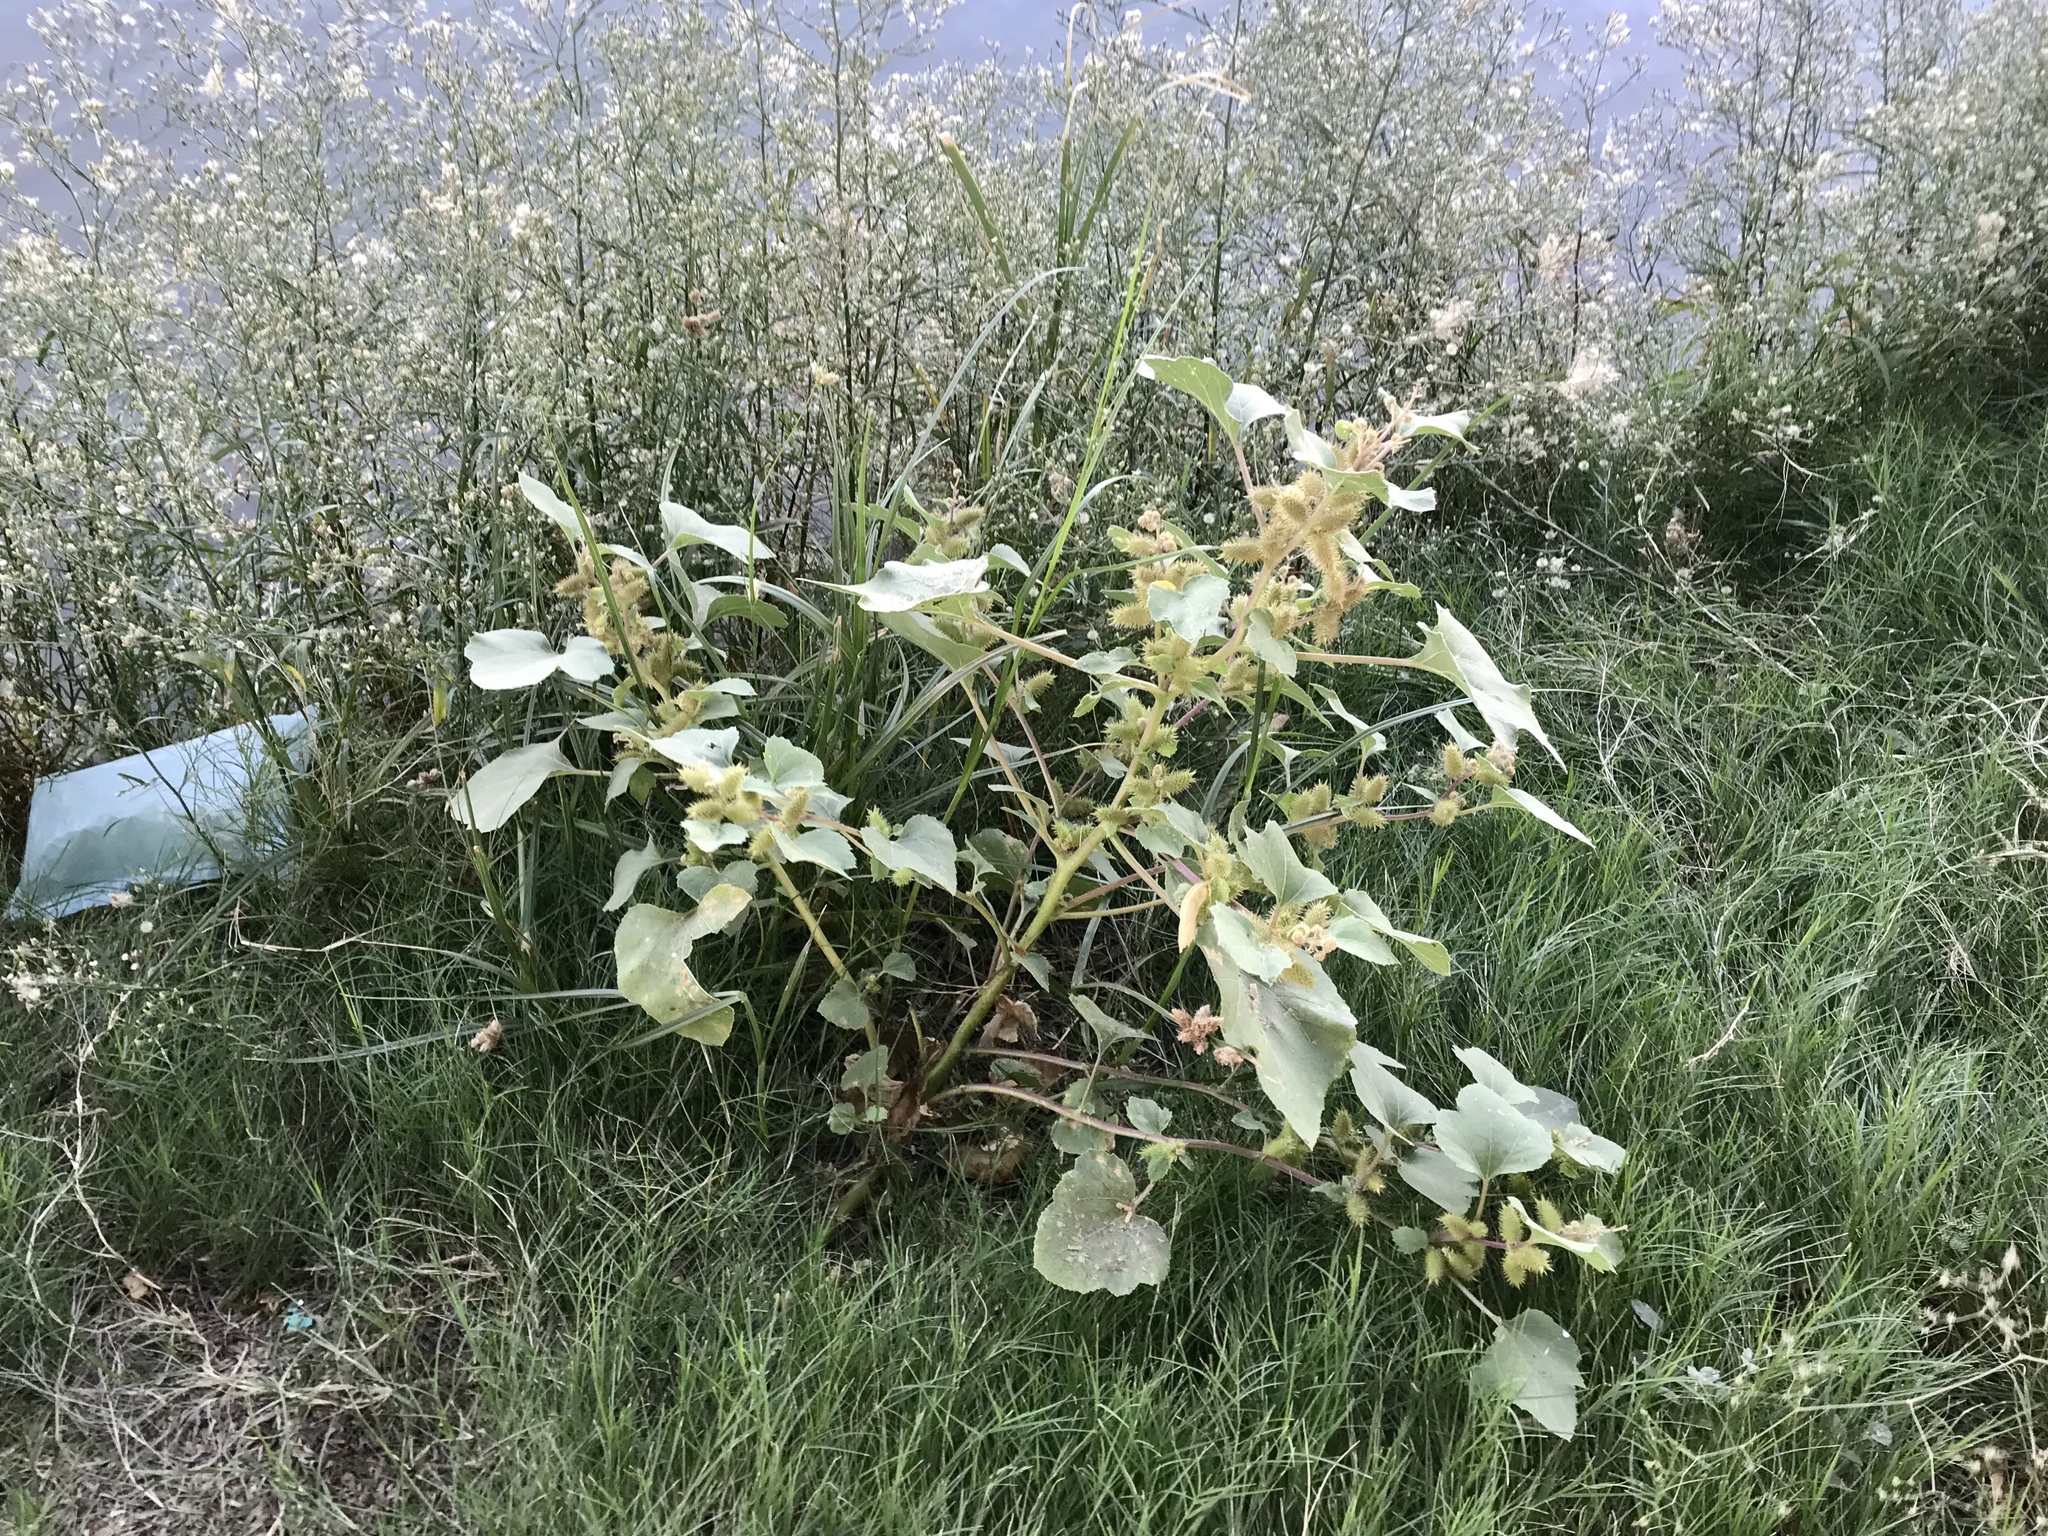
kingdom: Plantae
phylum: Tracheophyta
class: Magnoliopsida
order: Asterales
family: Asteraceae
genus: Xanthium
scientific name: Xanthium strumarium
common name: Rough cocklebur
